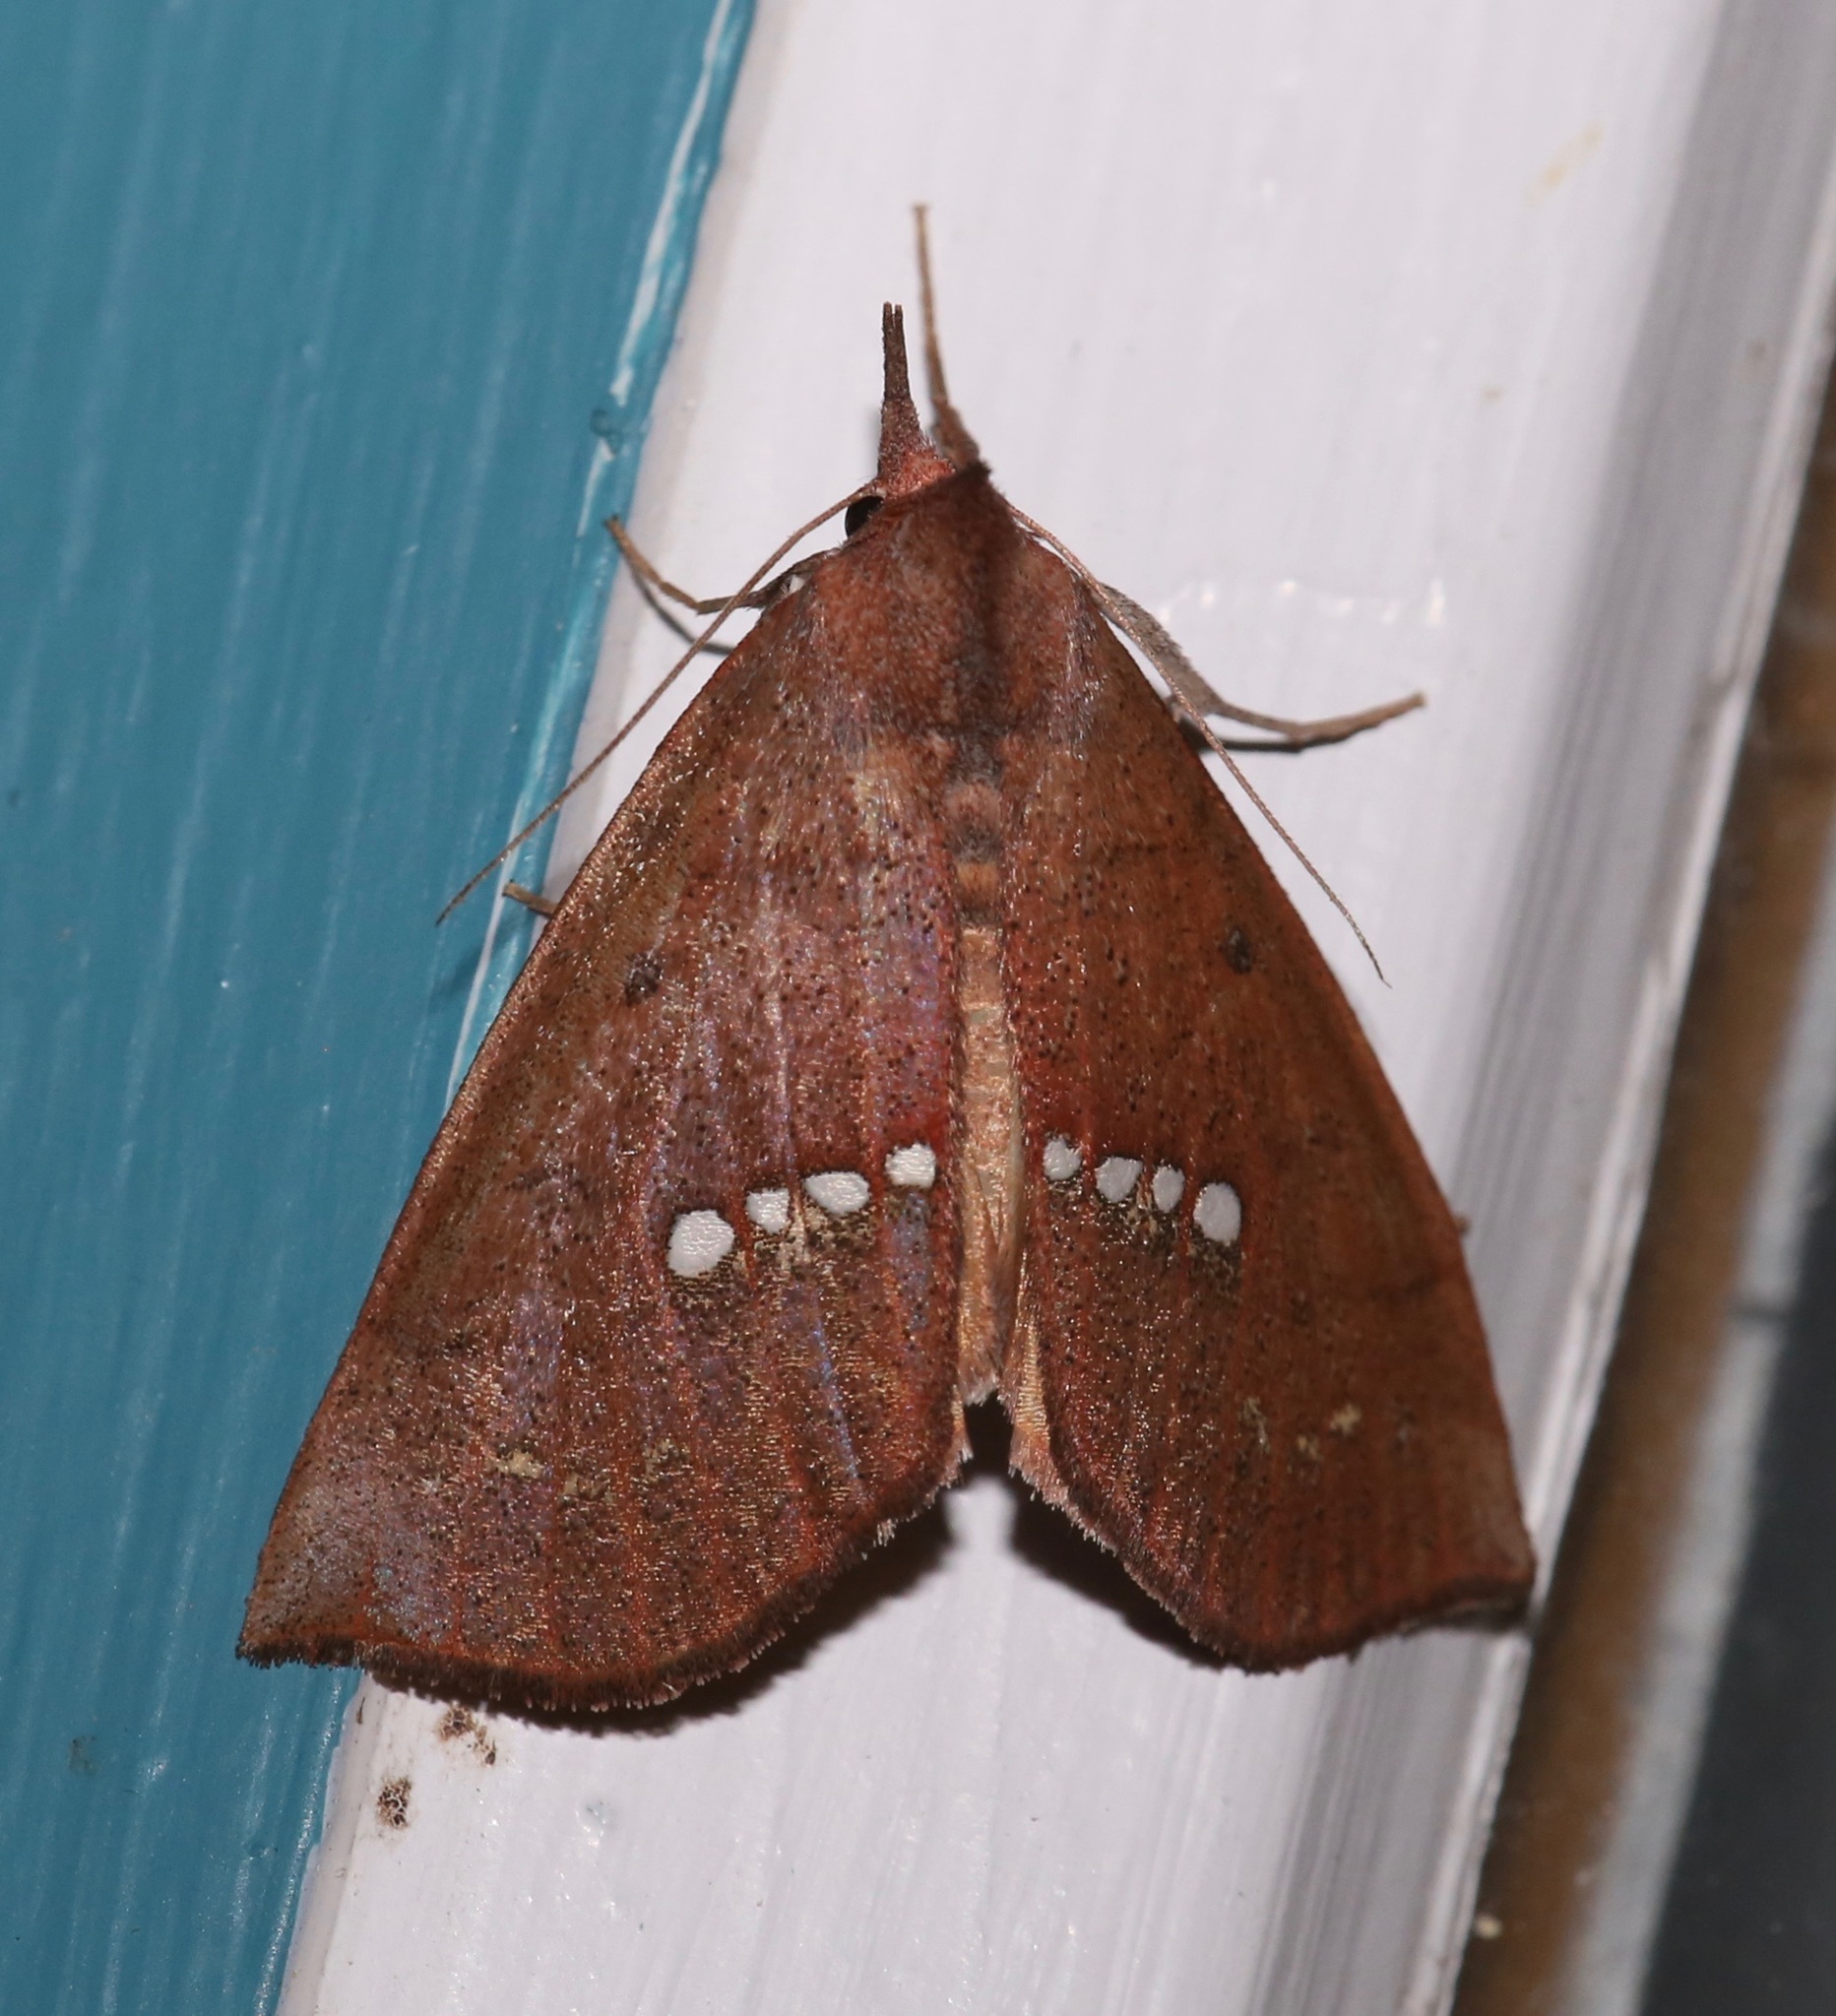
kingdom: Animalia
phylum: Arthropoda
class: Insecta
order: Lepidoptera
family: Erebidae
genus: Hypsoropha
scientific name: Hypsoropha monilis
